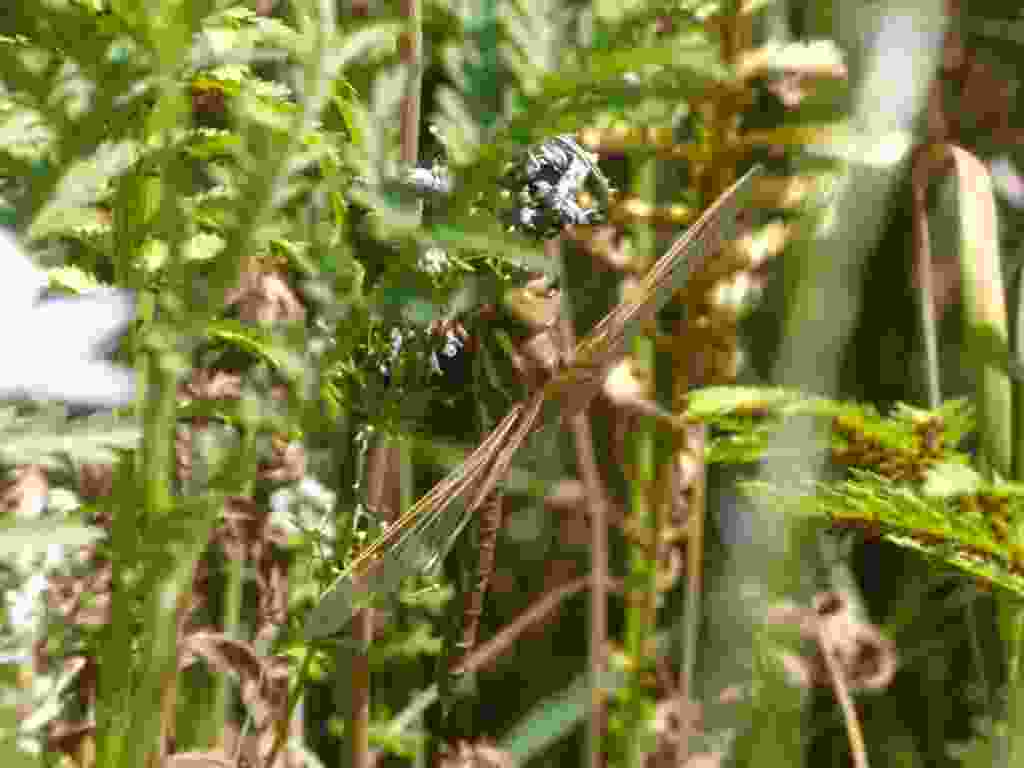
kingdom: Animalia
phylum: Arthropoda
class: Insecta
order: Odonata
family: Aeshnidae
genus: Aeshna
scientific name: Aeshna grandis
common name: Brown hawker
